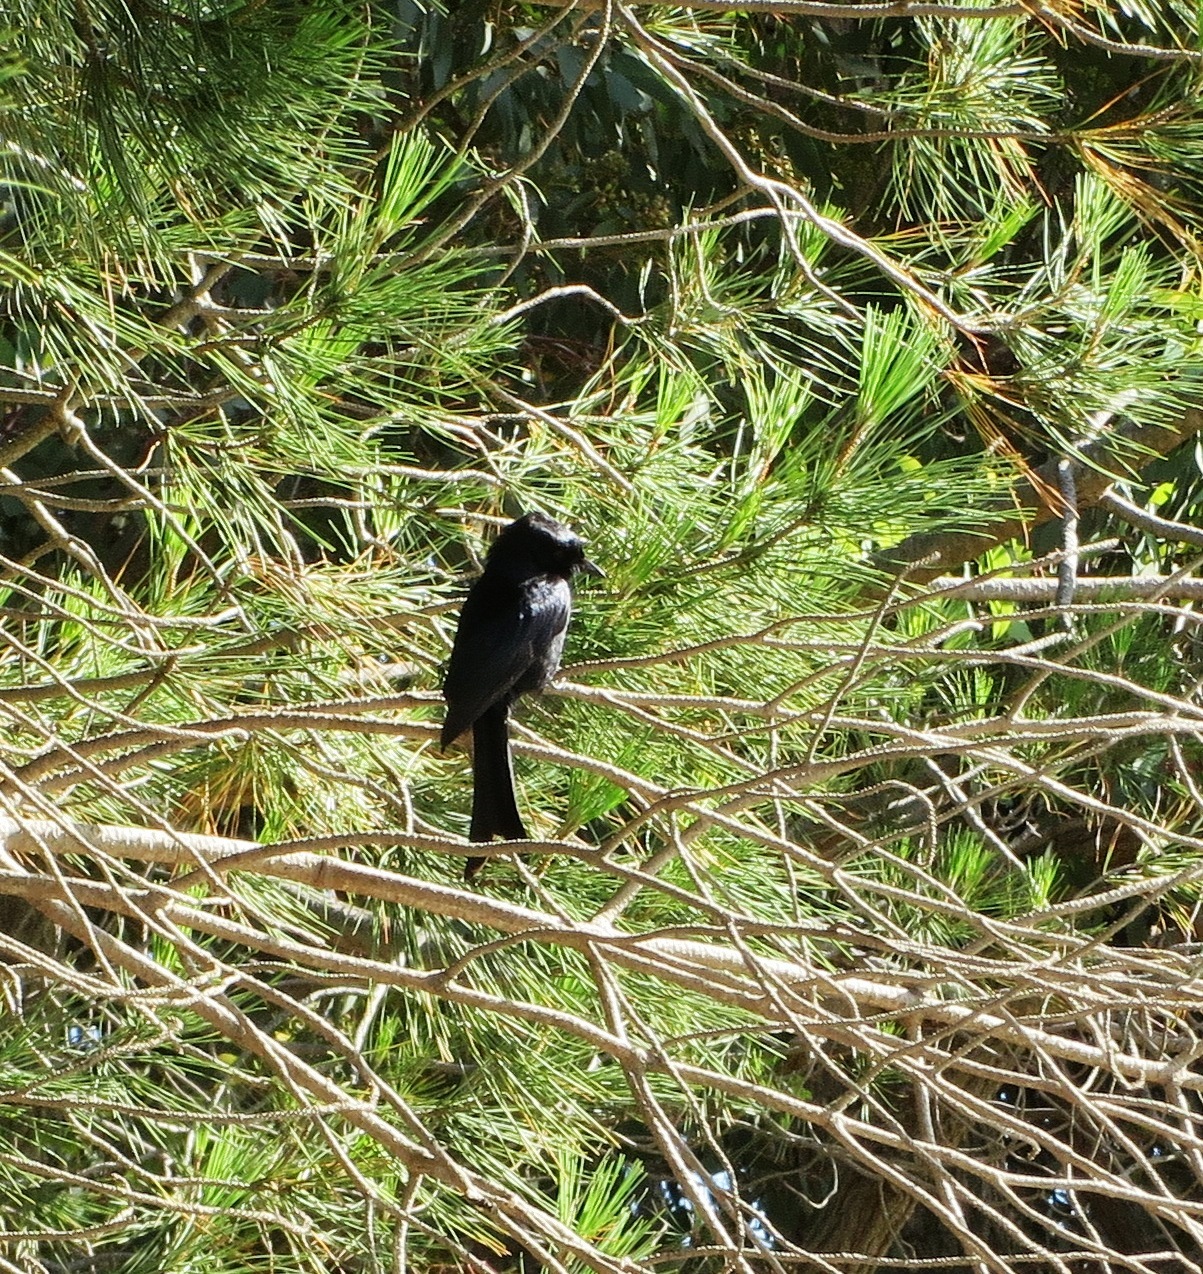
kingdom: Animalia
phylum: Chordata
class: Aves
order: Passeriformes
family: Dicruridae
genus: Dicrurus
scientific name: Dicrurus adsimilis
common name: Fork-tailed drongo
